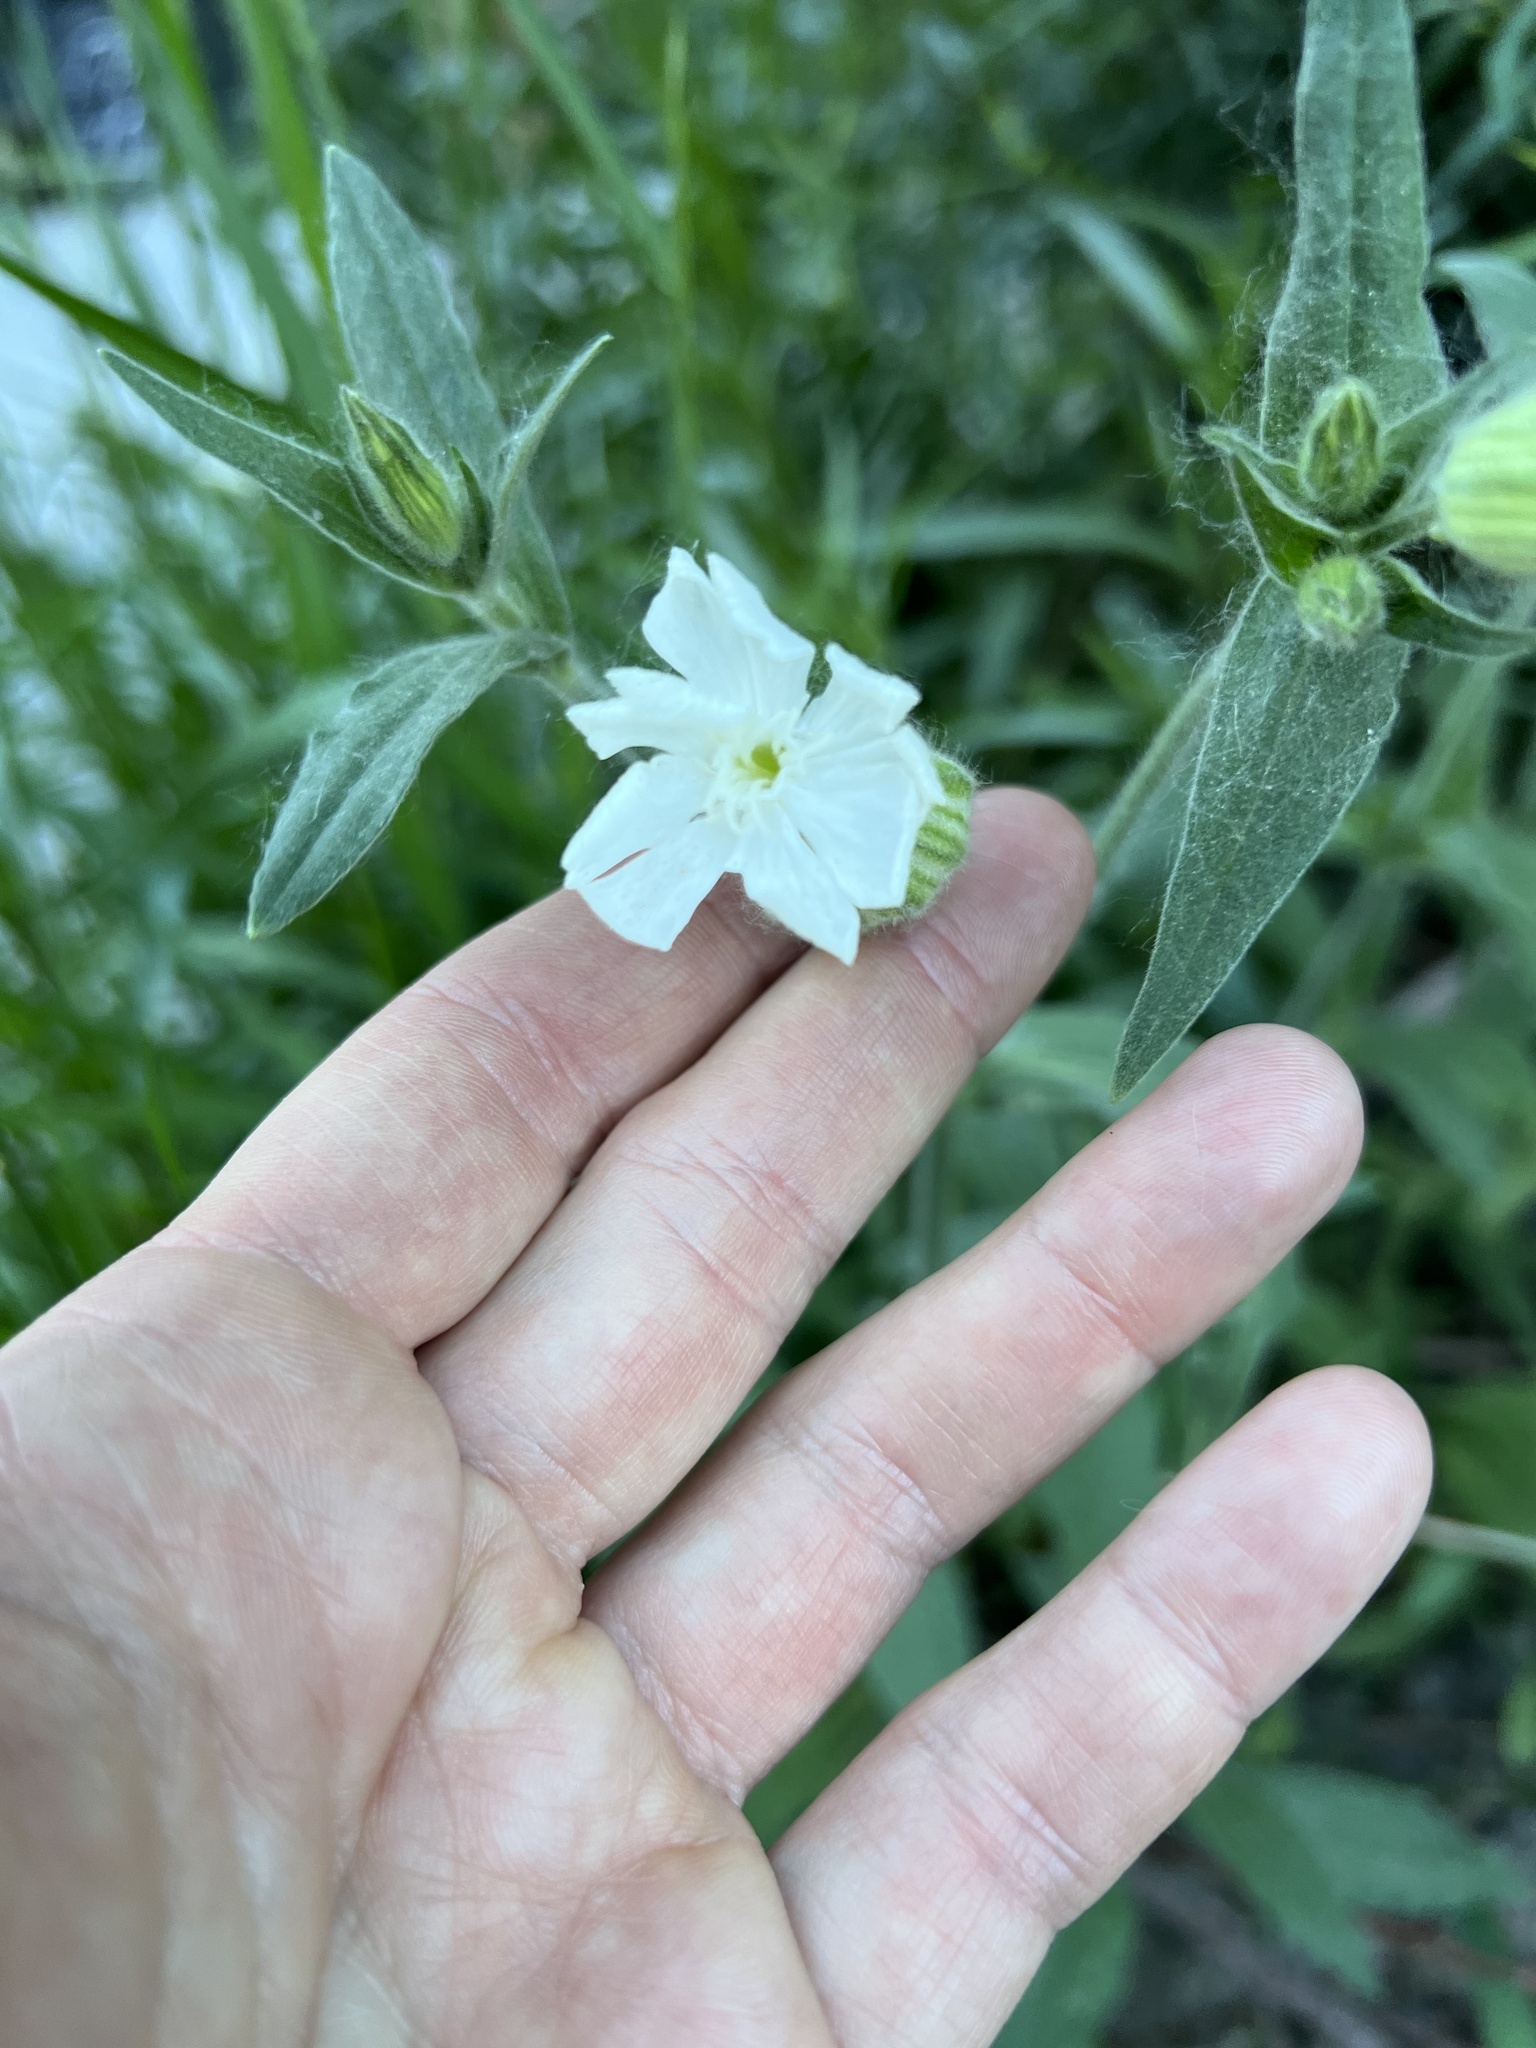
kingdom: Plantae
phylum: Tracheophyta
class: Magnoliopsida
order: Caryophyllales
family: Caryophyllaceae
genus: Silene
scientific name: Silene latifolia
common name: White campion
